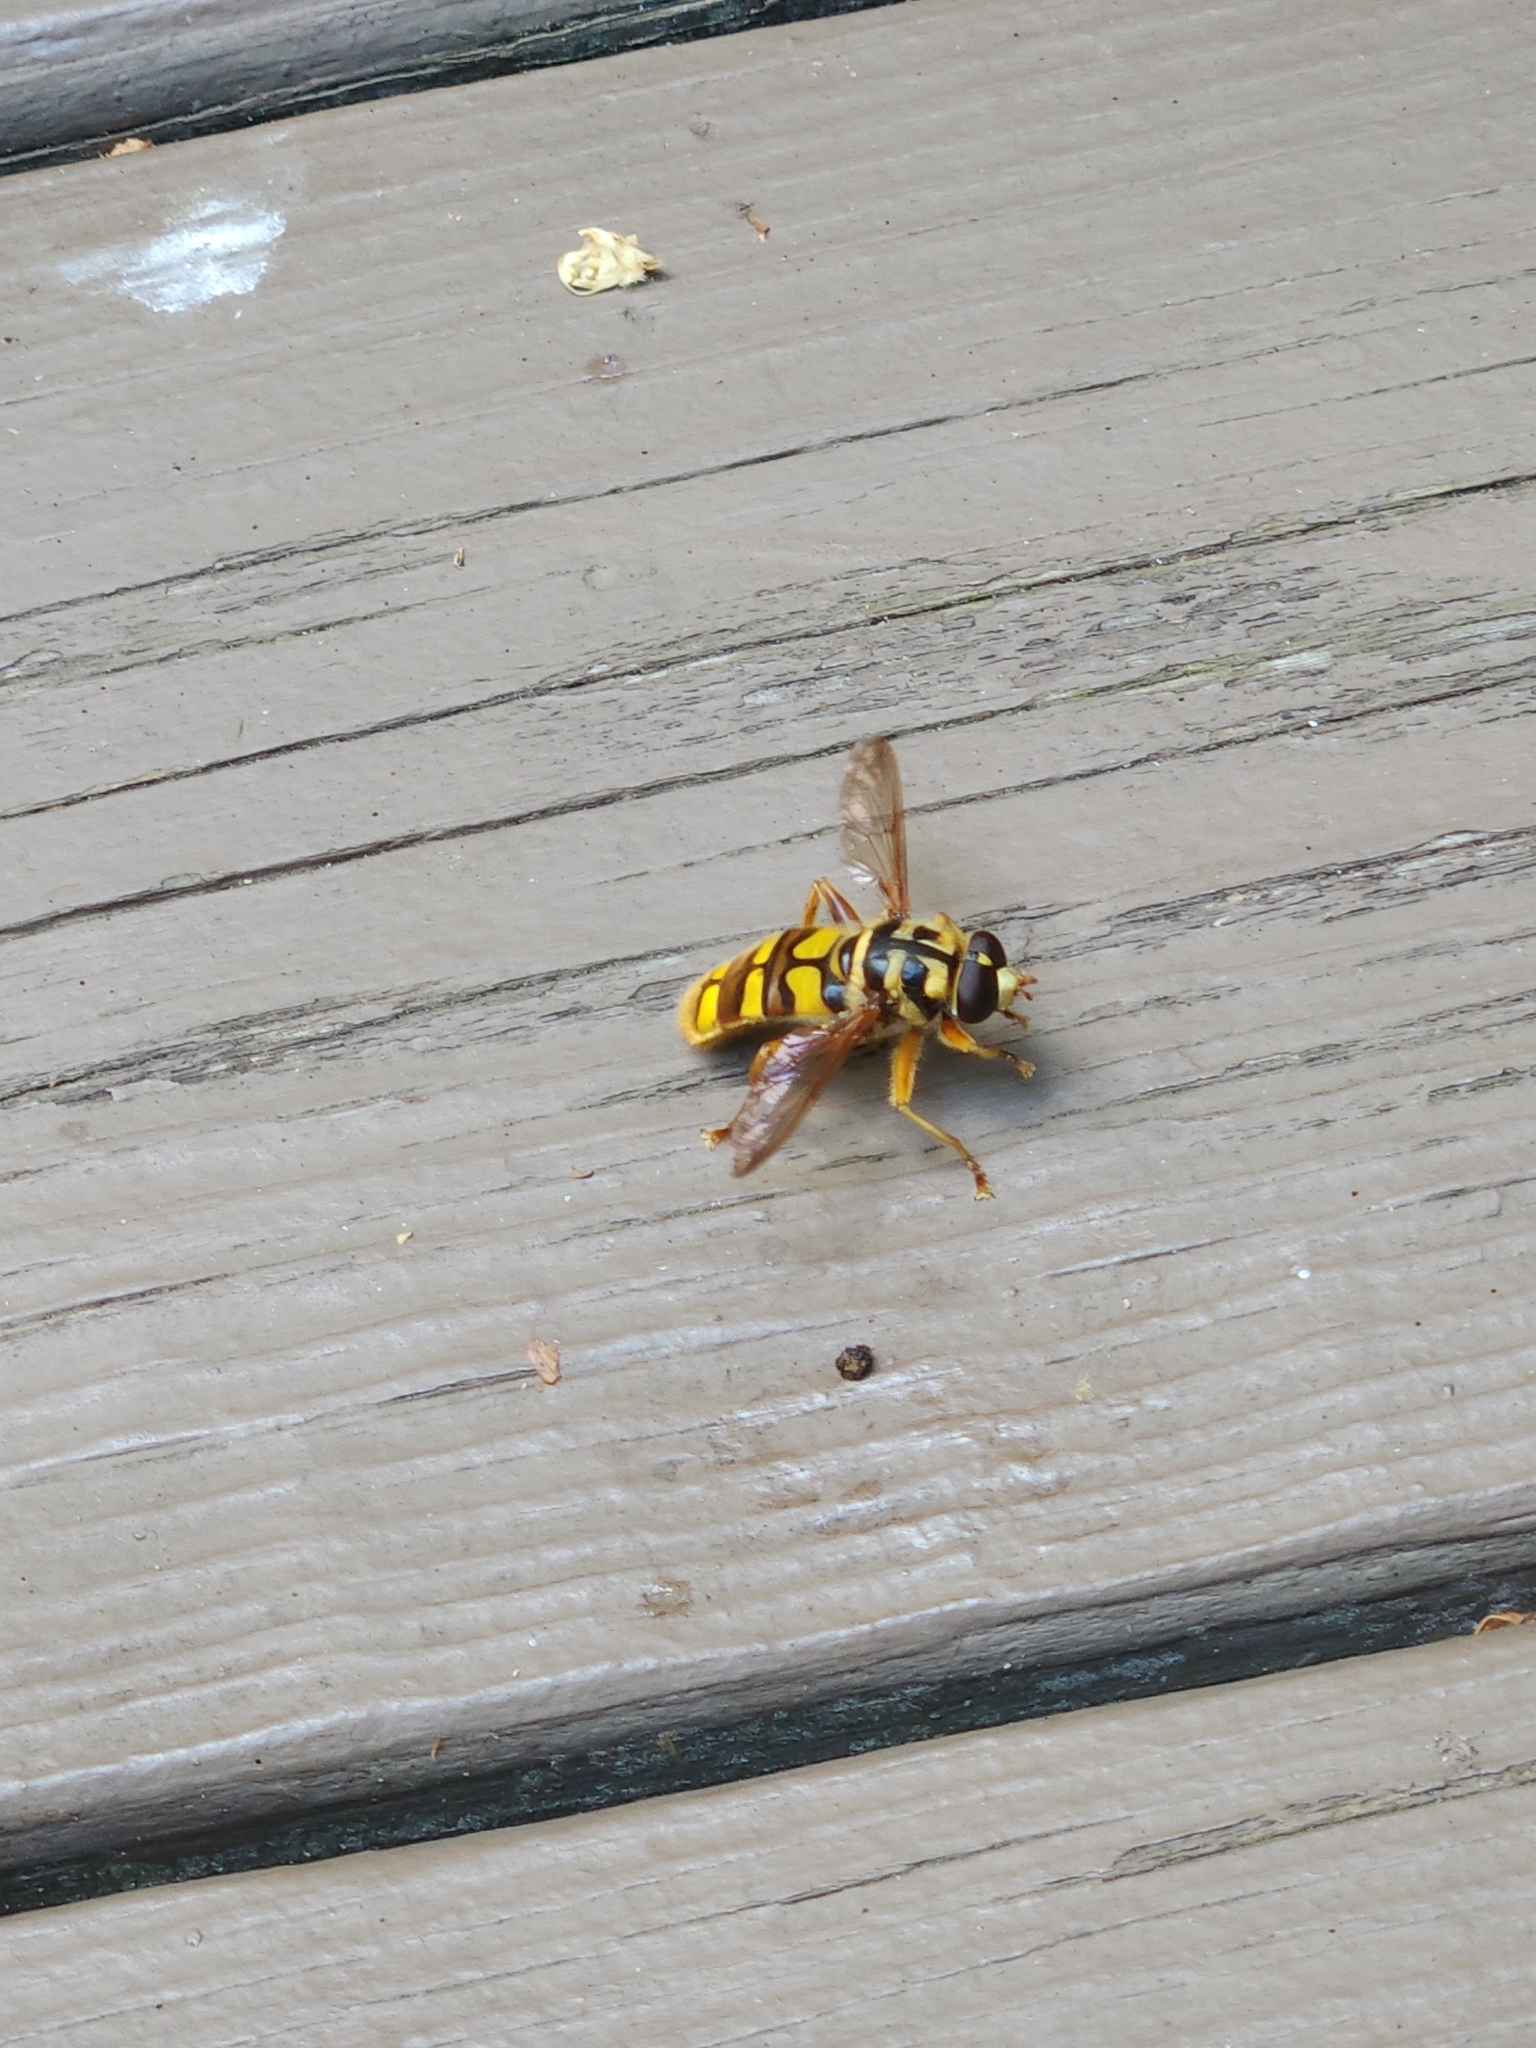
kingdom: Animalia
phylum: Arthropoda
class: Insecta
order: Diptera
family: Syrphidae
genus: Milesia
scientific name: Milesia virginiensis
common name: Virginia giant
